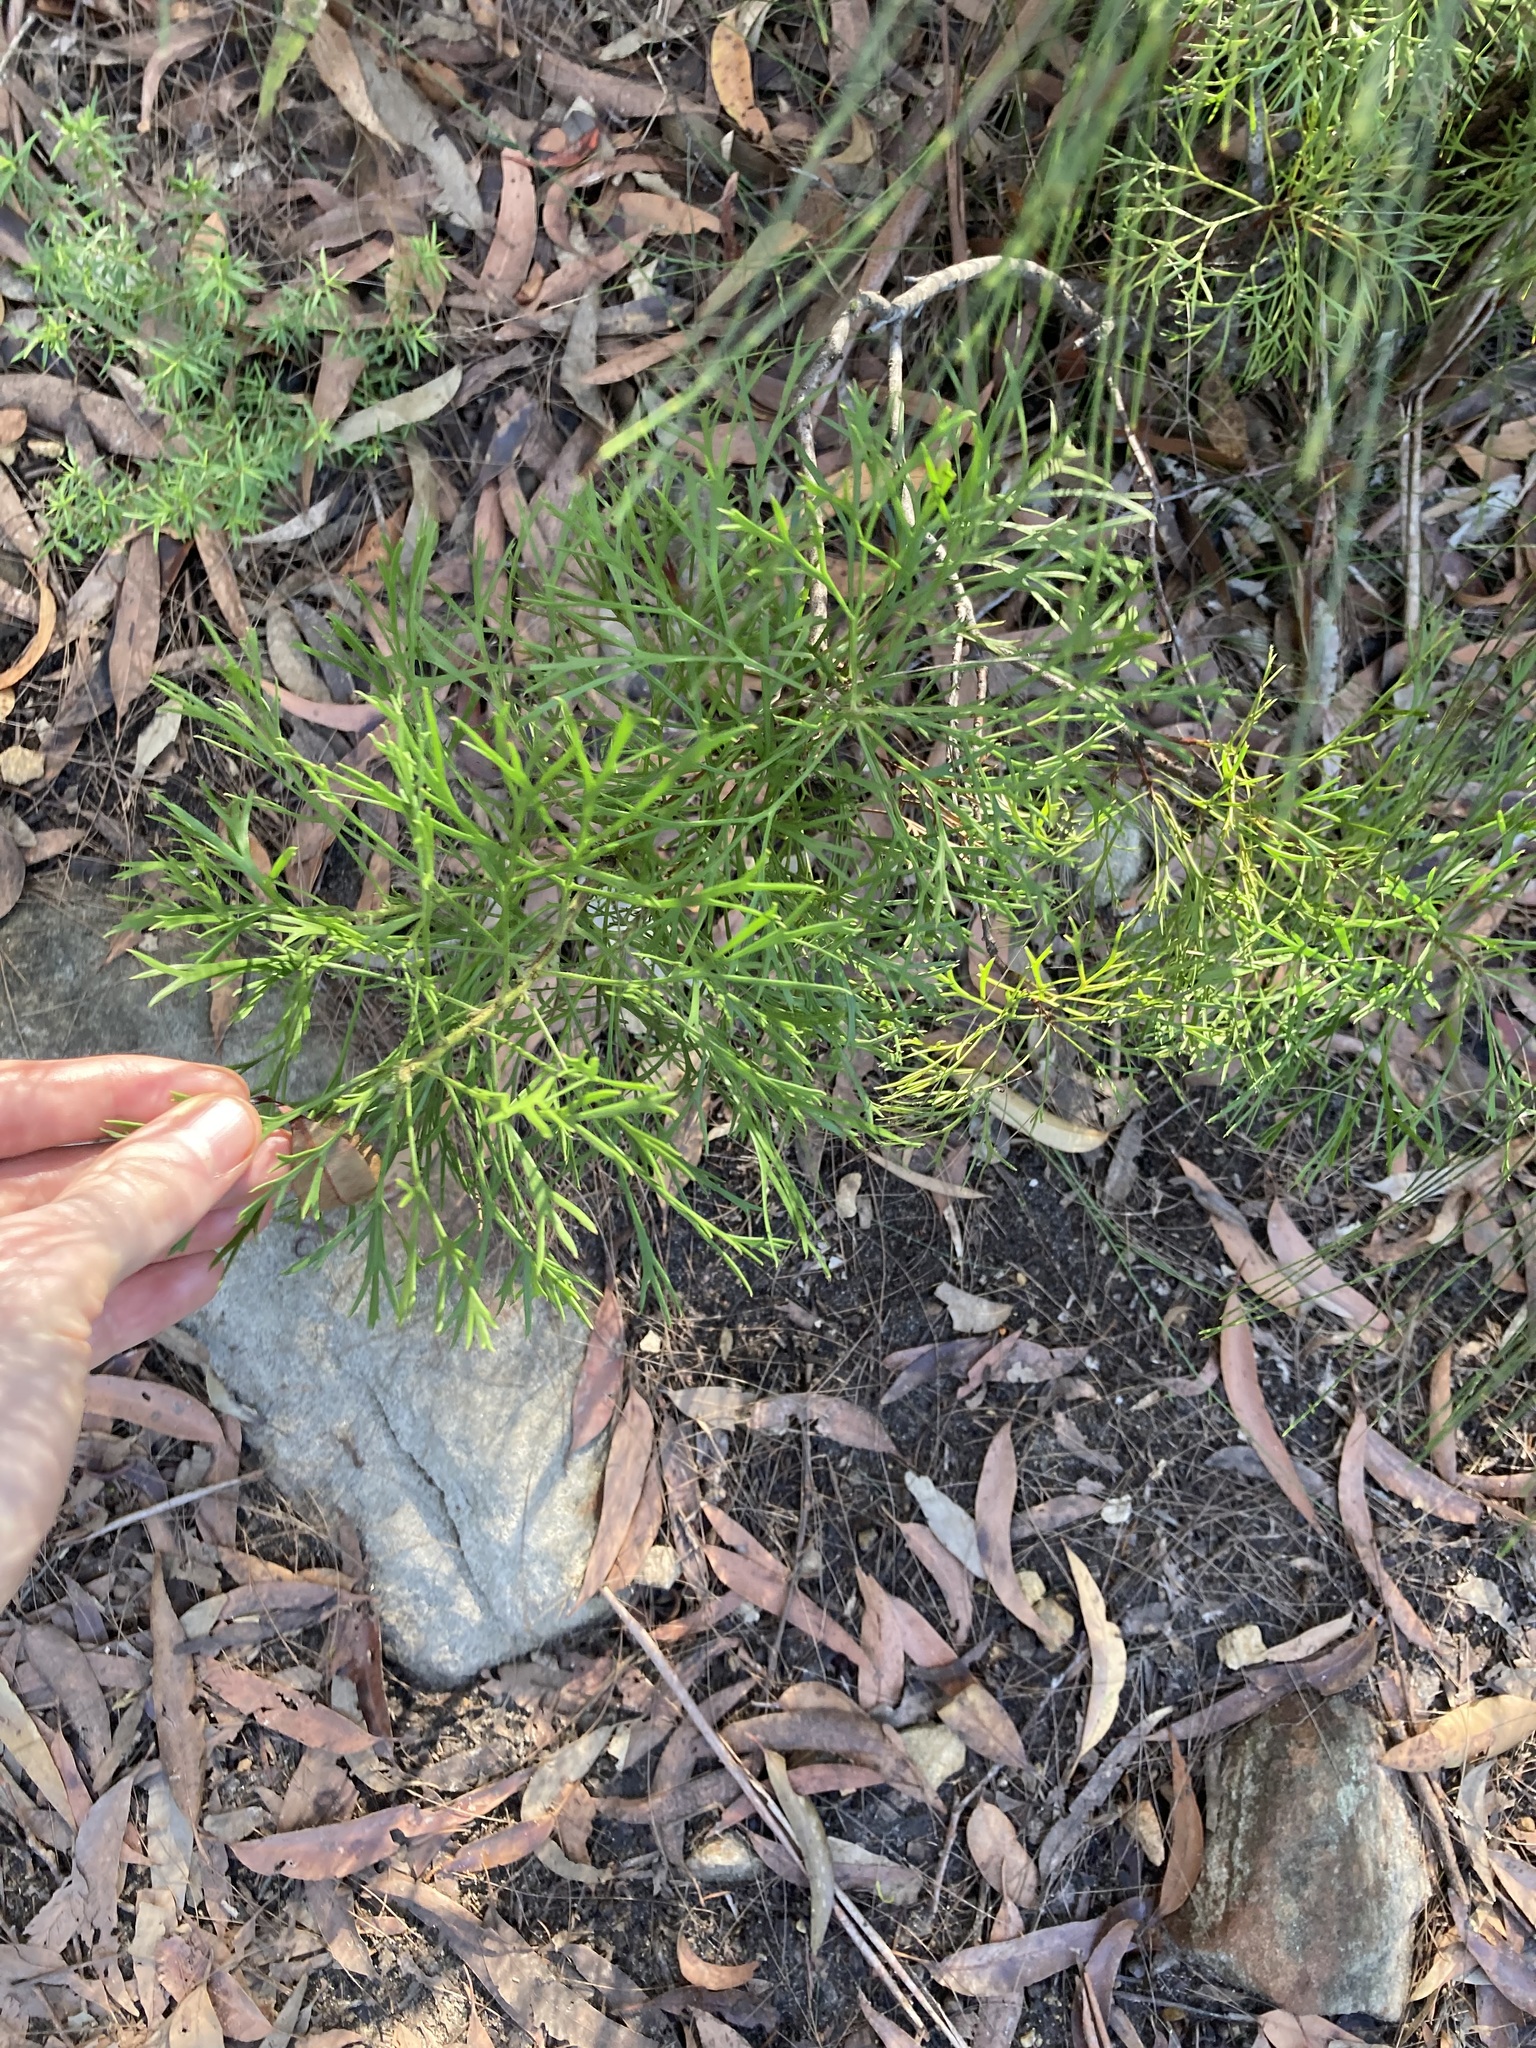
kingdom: Plantae
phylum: Tracheophyta
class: Magnoliopsida
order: Proteales
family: Proteaceae
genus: Isopogon
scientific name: Isopogon anemonifolius
